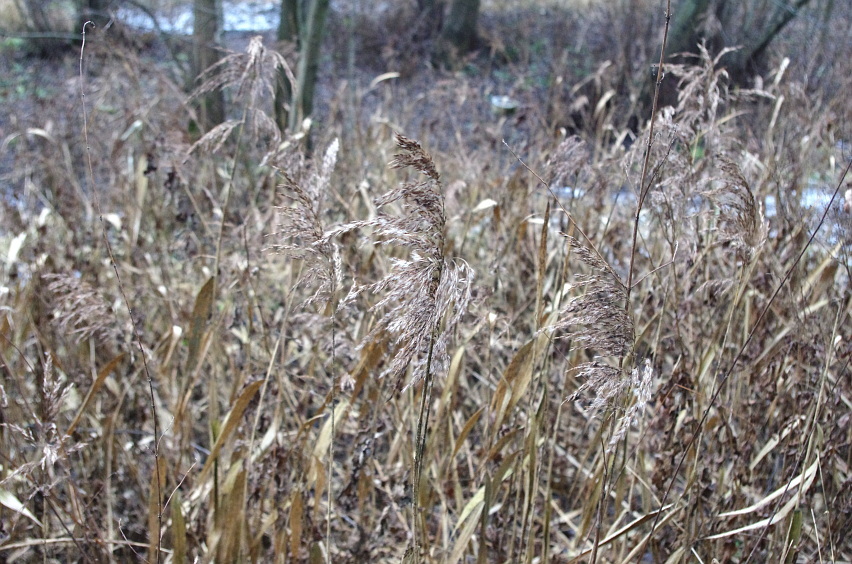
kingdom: Plantae
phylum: Tracheophyta
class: Liliopsida
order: Poales
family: Poaceae
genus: Phragmites
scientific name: Phragmites australis
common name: Common reed
